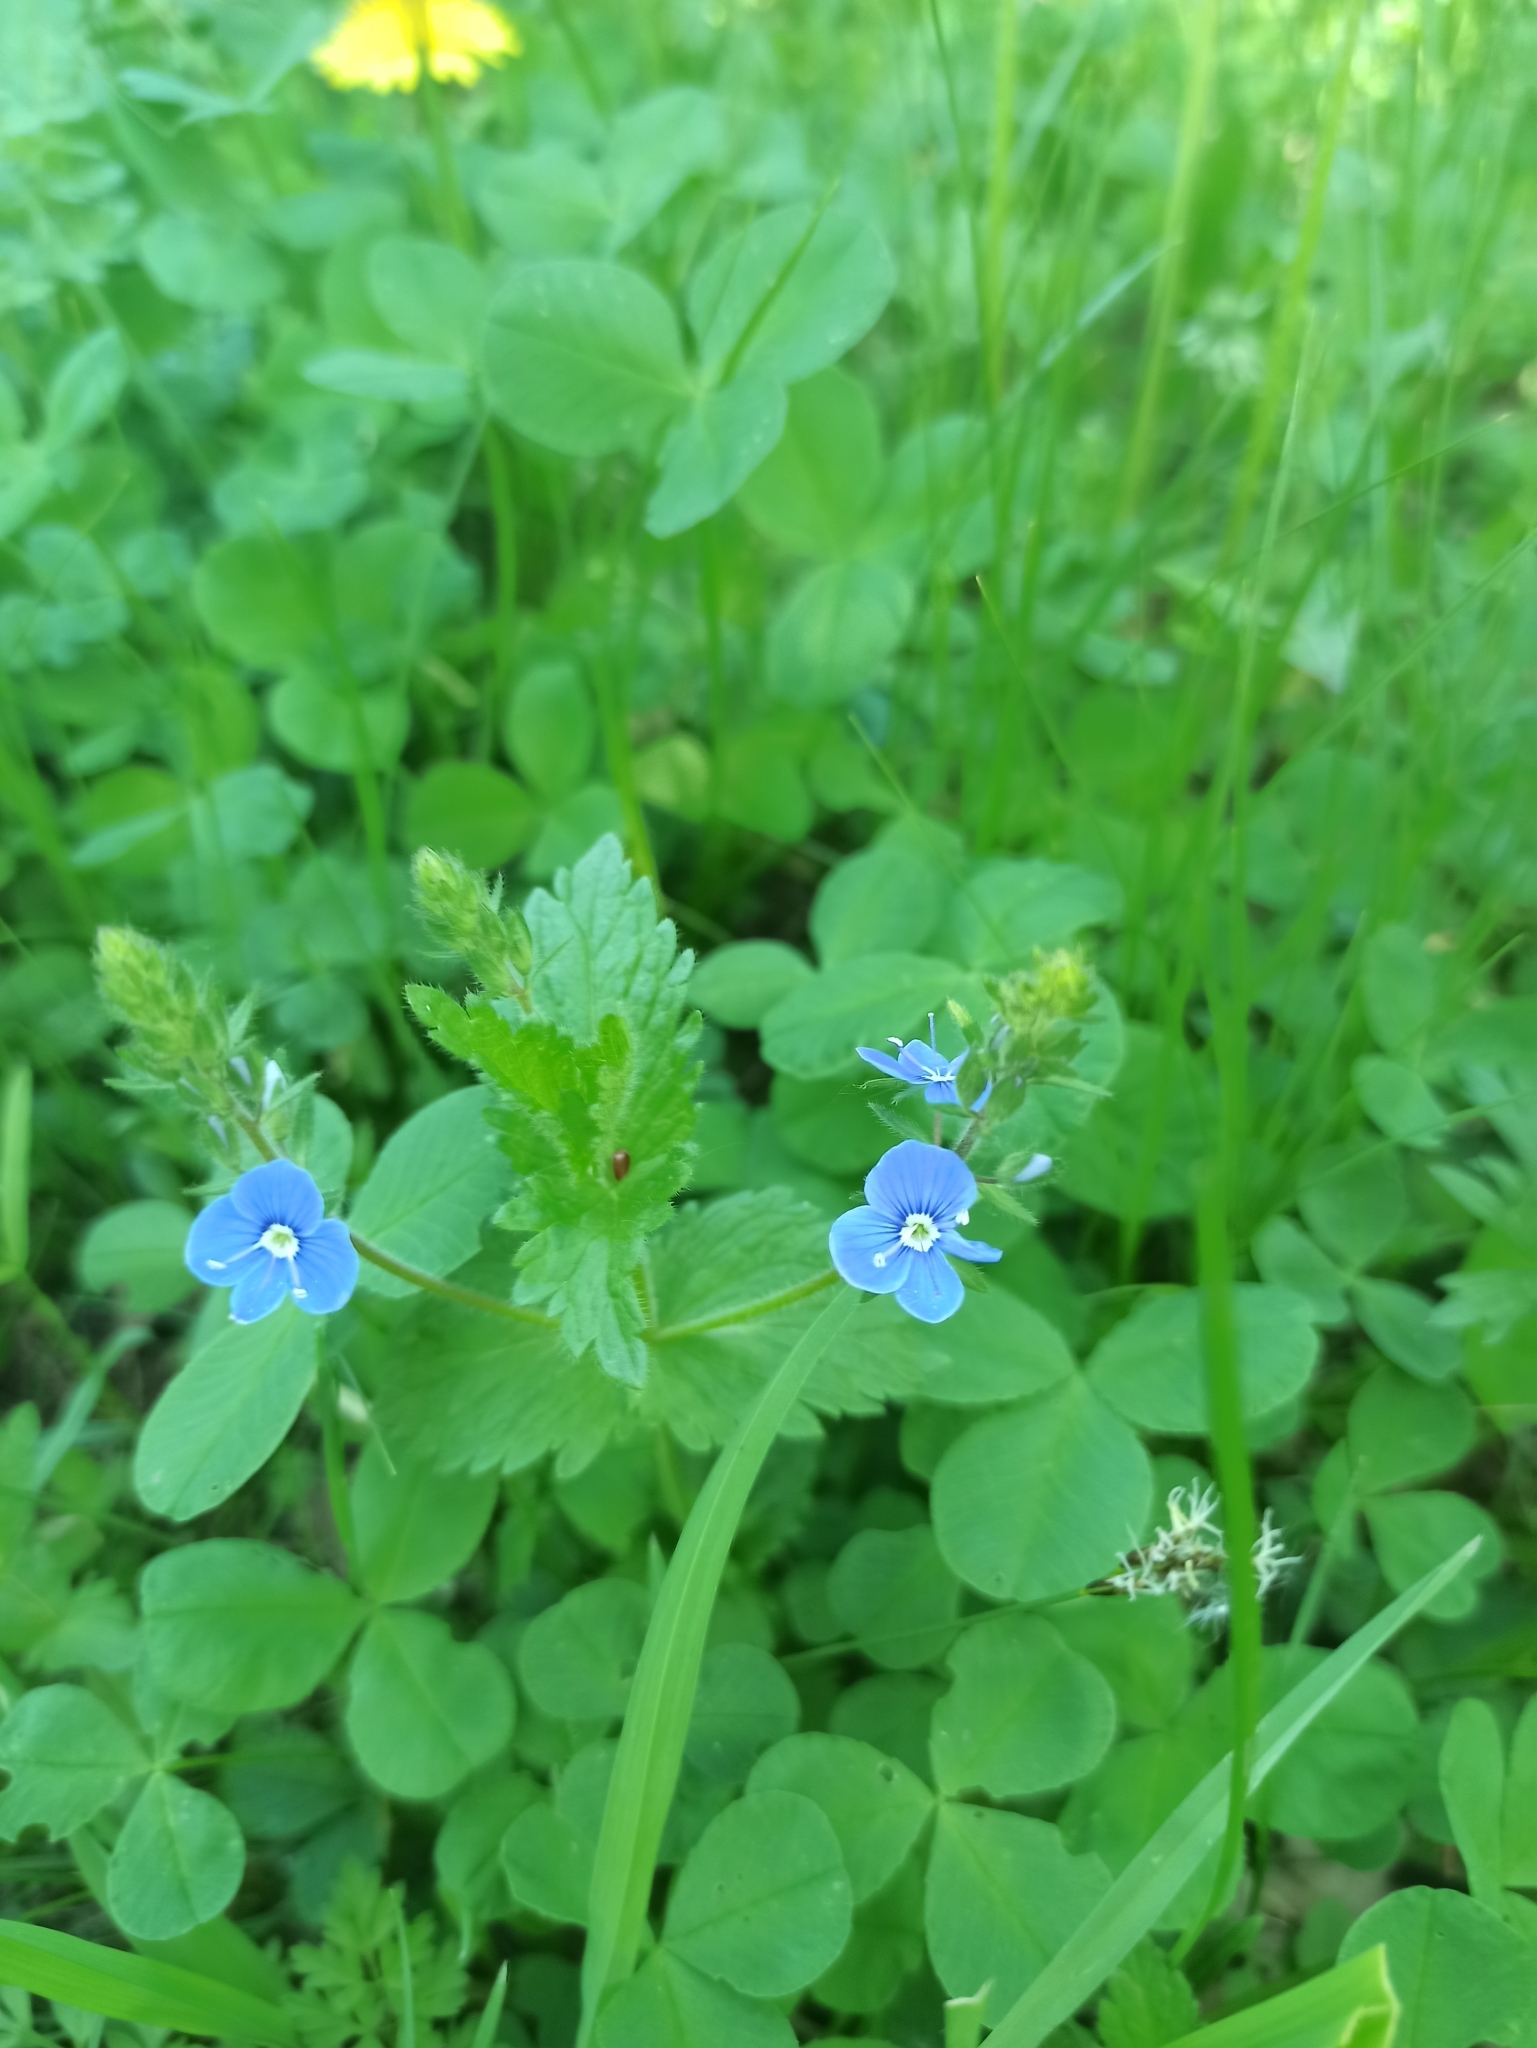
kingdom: Plantae
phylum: Tracheophyta
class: Magnoliopsida
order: Lamiales
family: Plantaginaceae
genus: Veronica
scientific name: Veronica chamaedrys
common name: Germander speedwell
